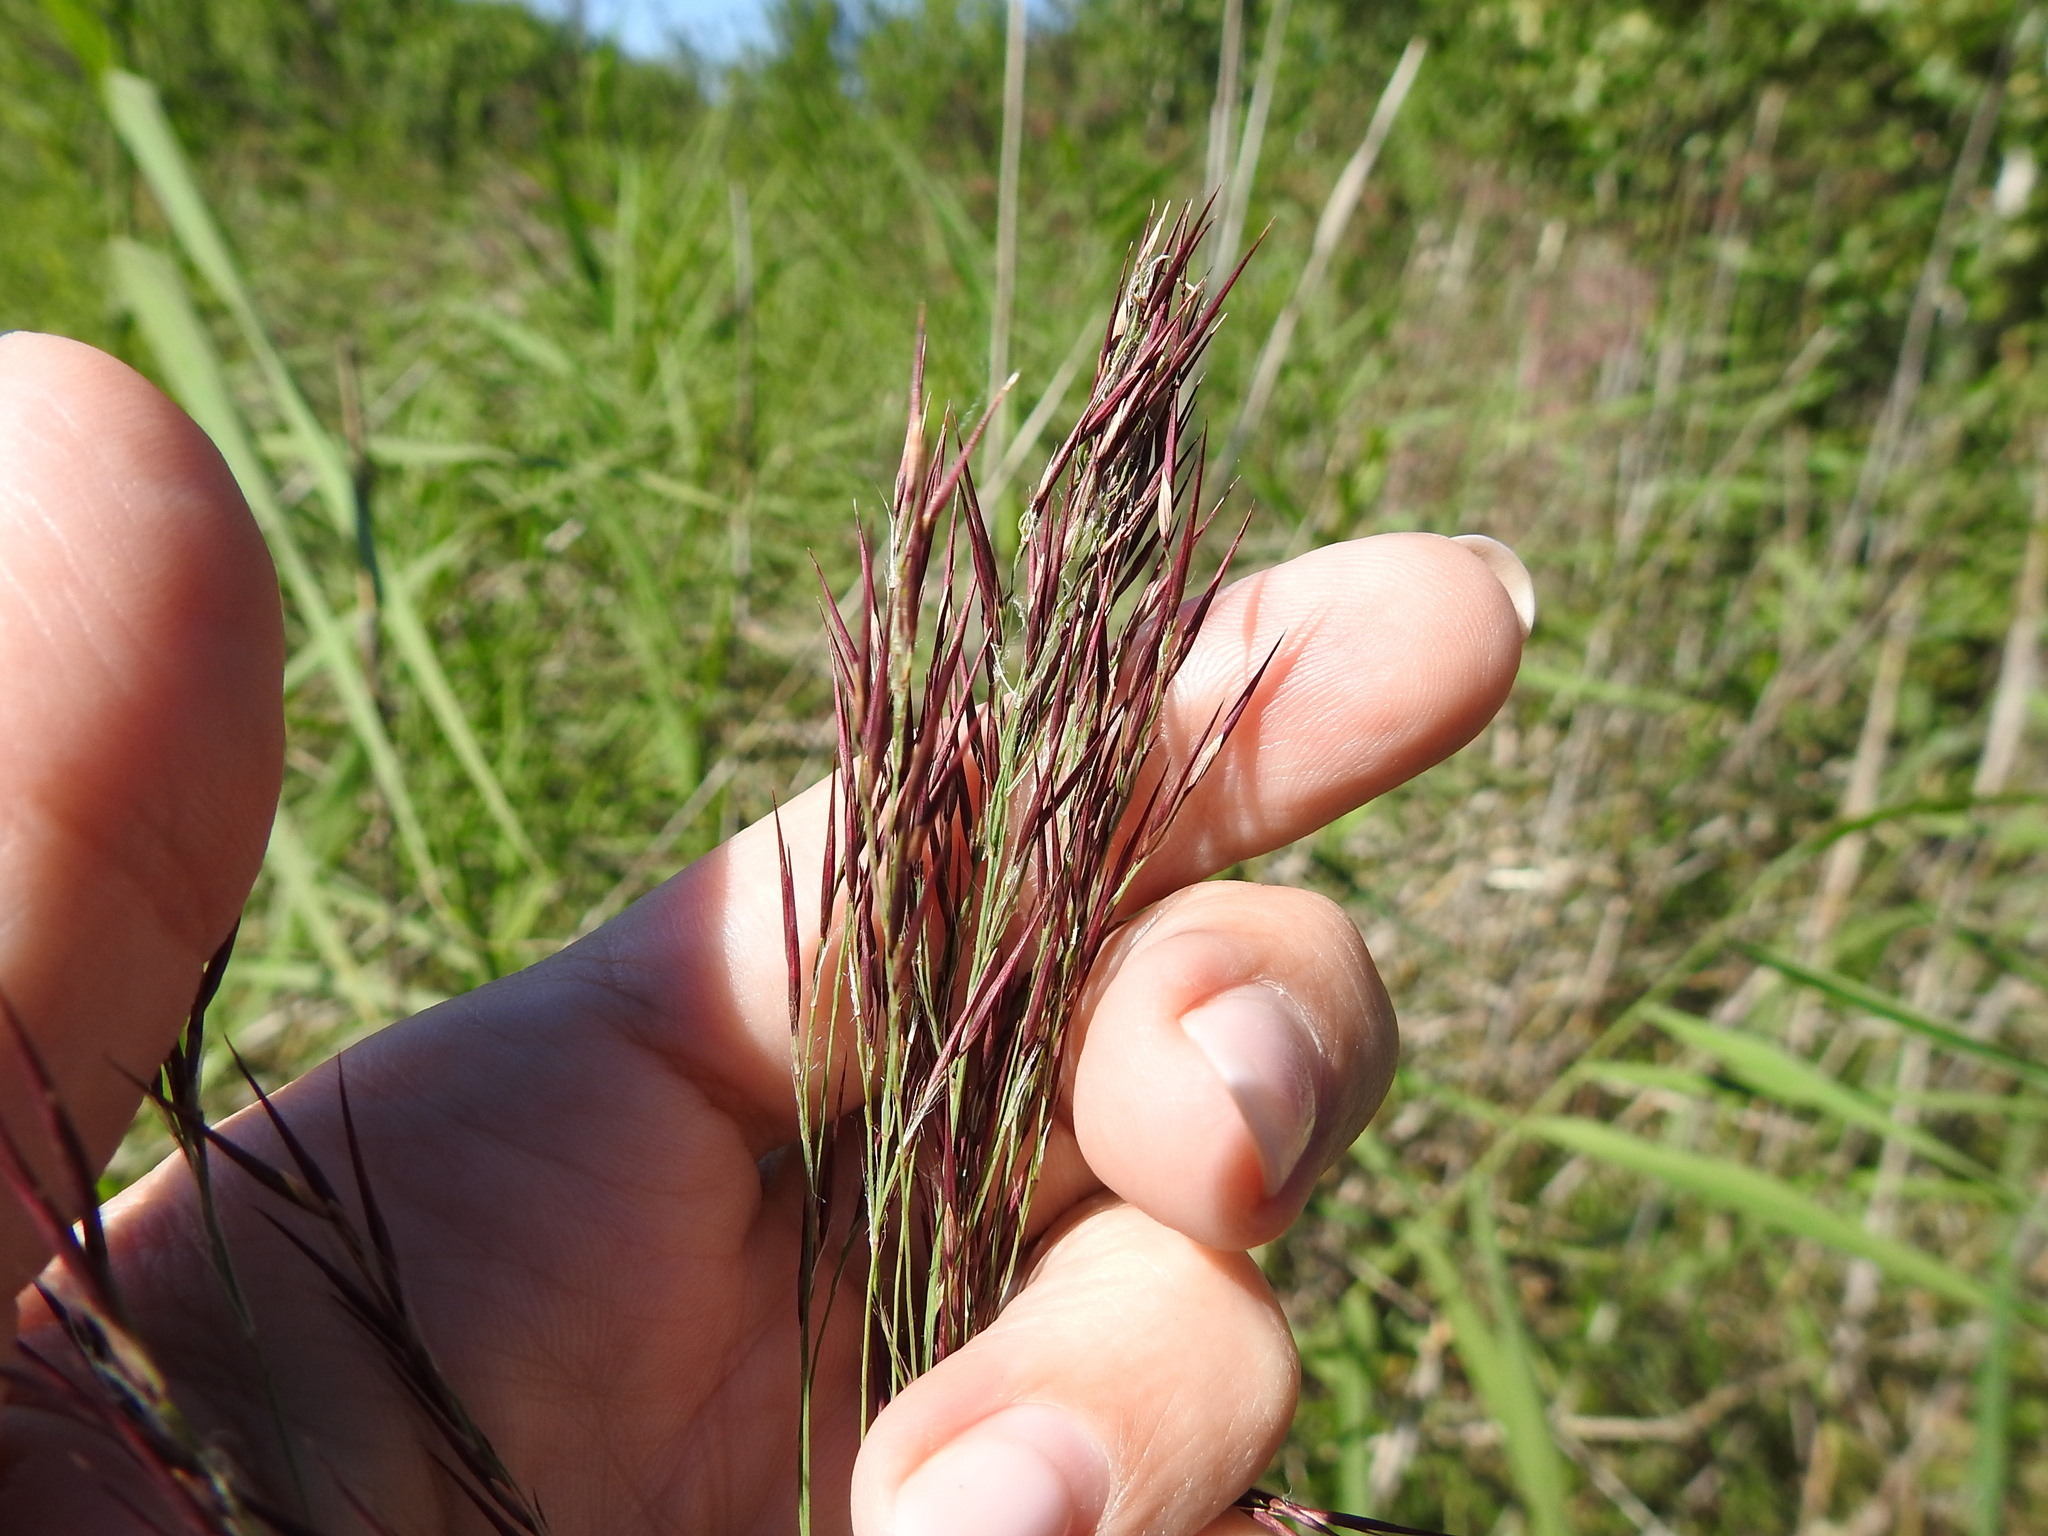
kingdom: Plantae
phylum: Tracheophyta
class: Liliopsida
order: Poales
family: Poaceae
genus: Phragmites
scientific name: Phragmites australis
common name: Common reed
